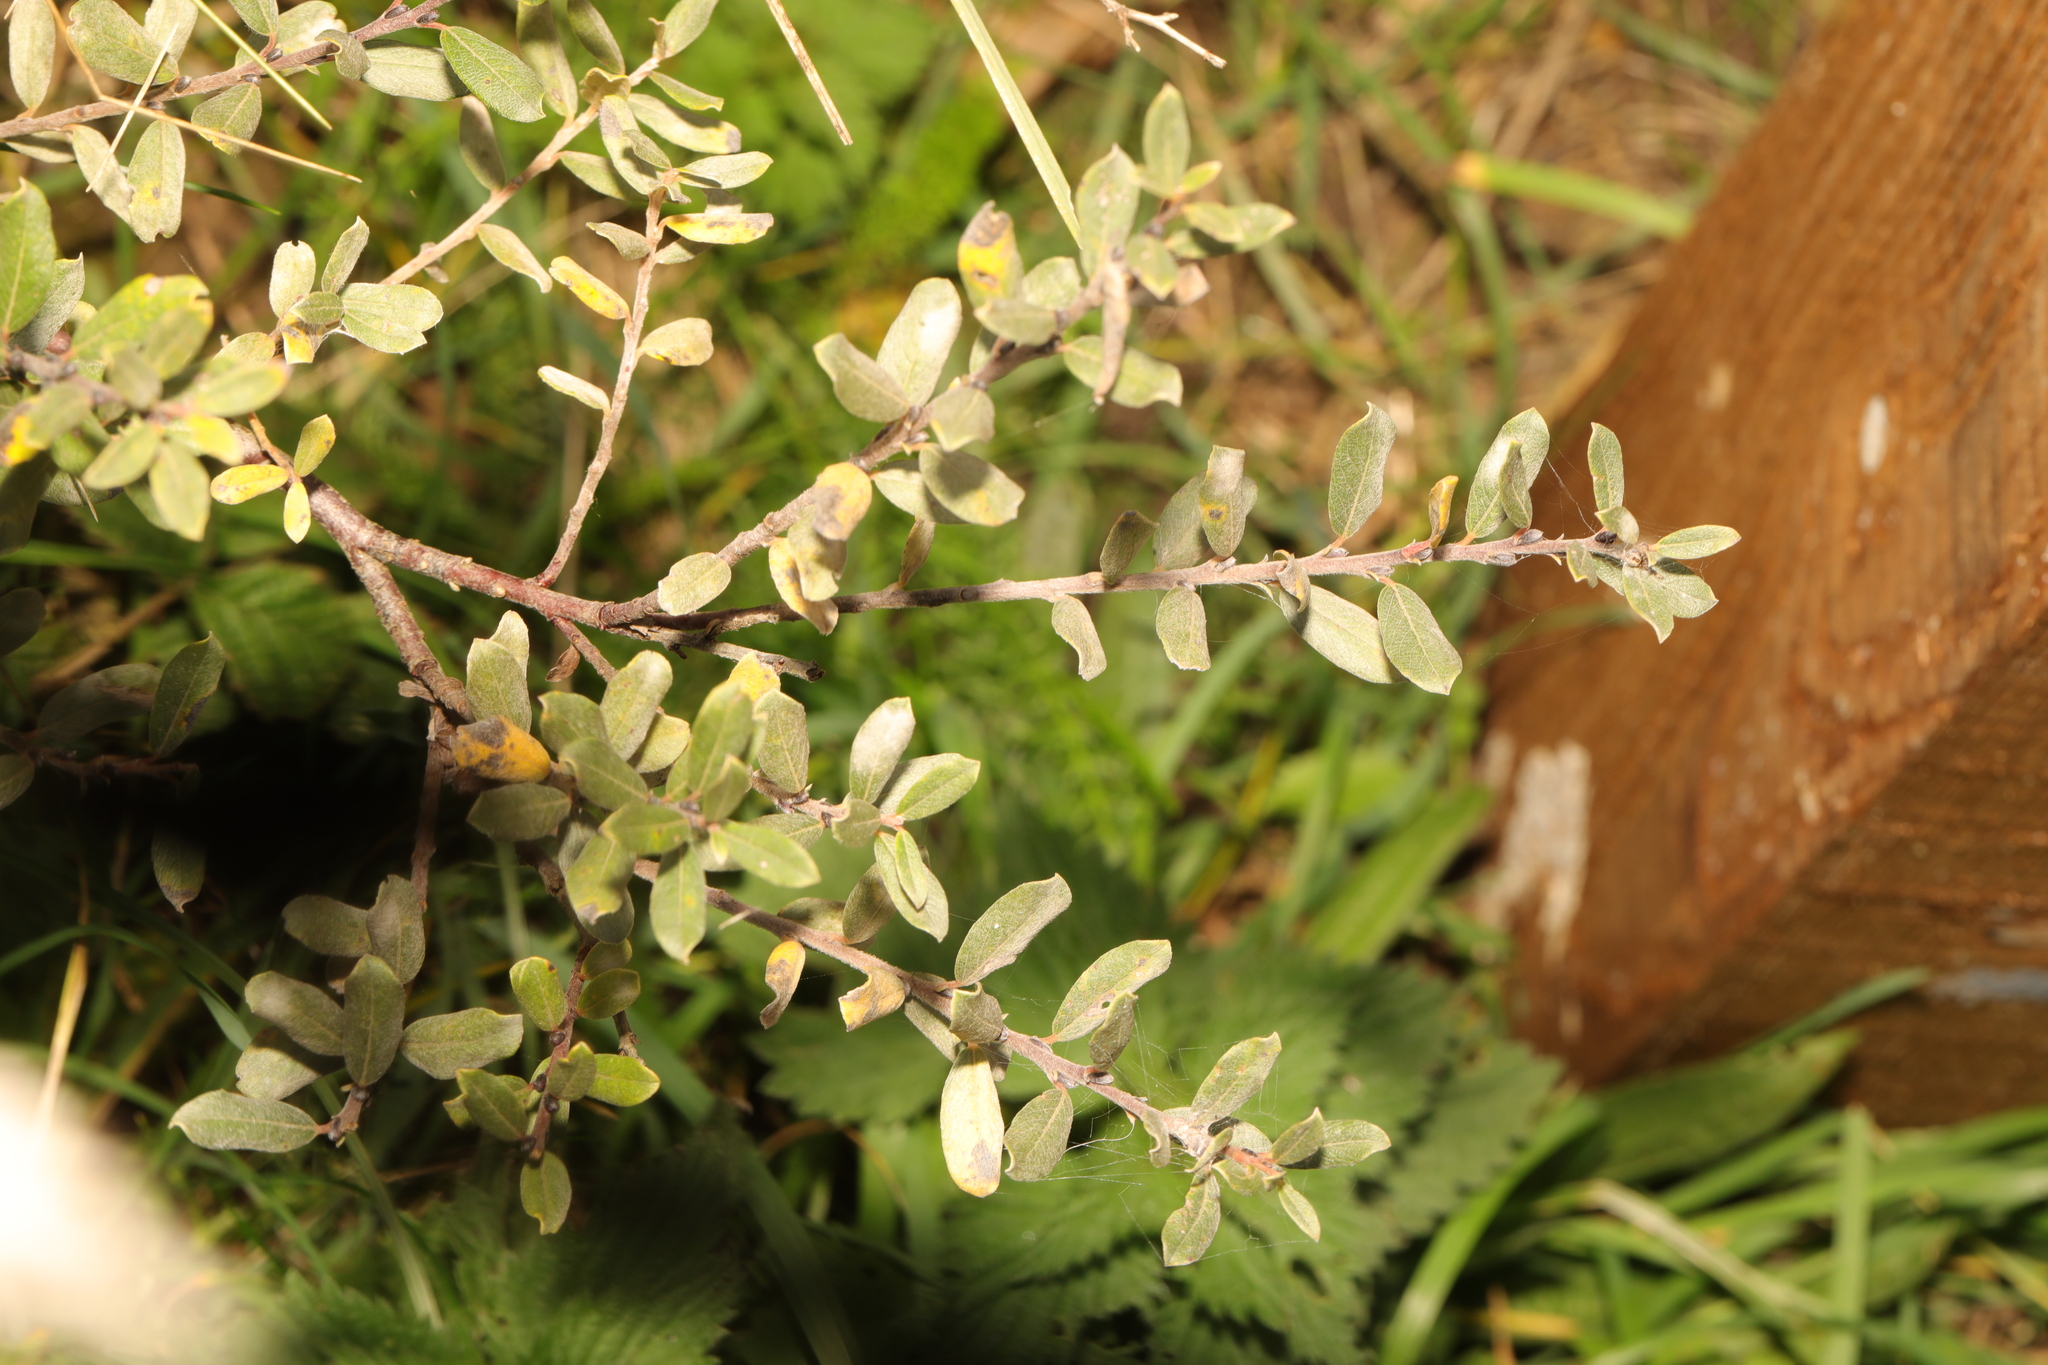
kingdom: Plantae
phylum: Tracheophyta
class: Magnoliopsida
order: Malpighiales
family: Salicaceae
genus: Salix
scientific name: Salix repens
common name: Creeping willow
